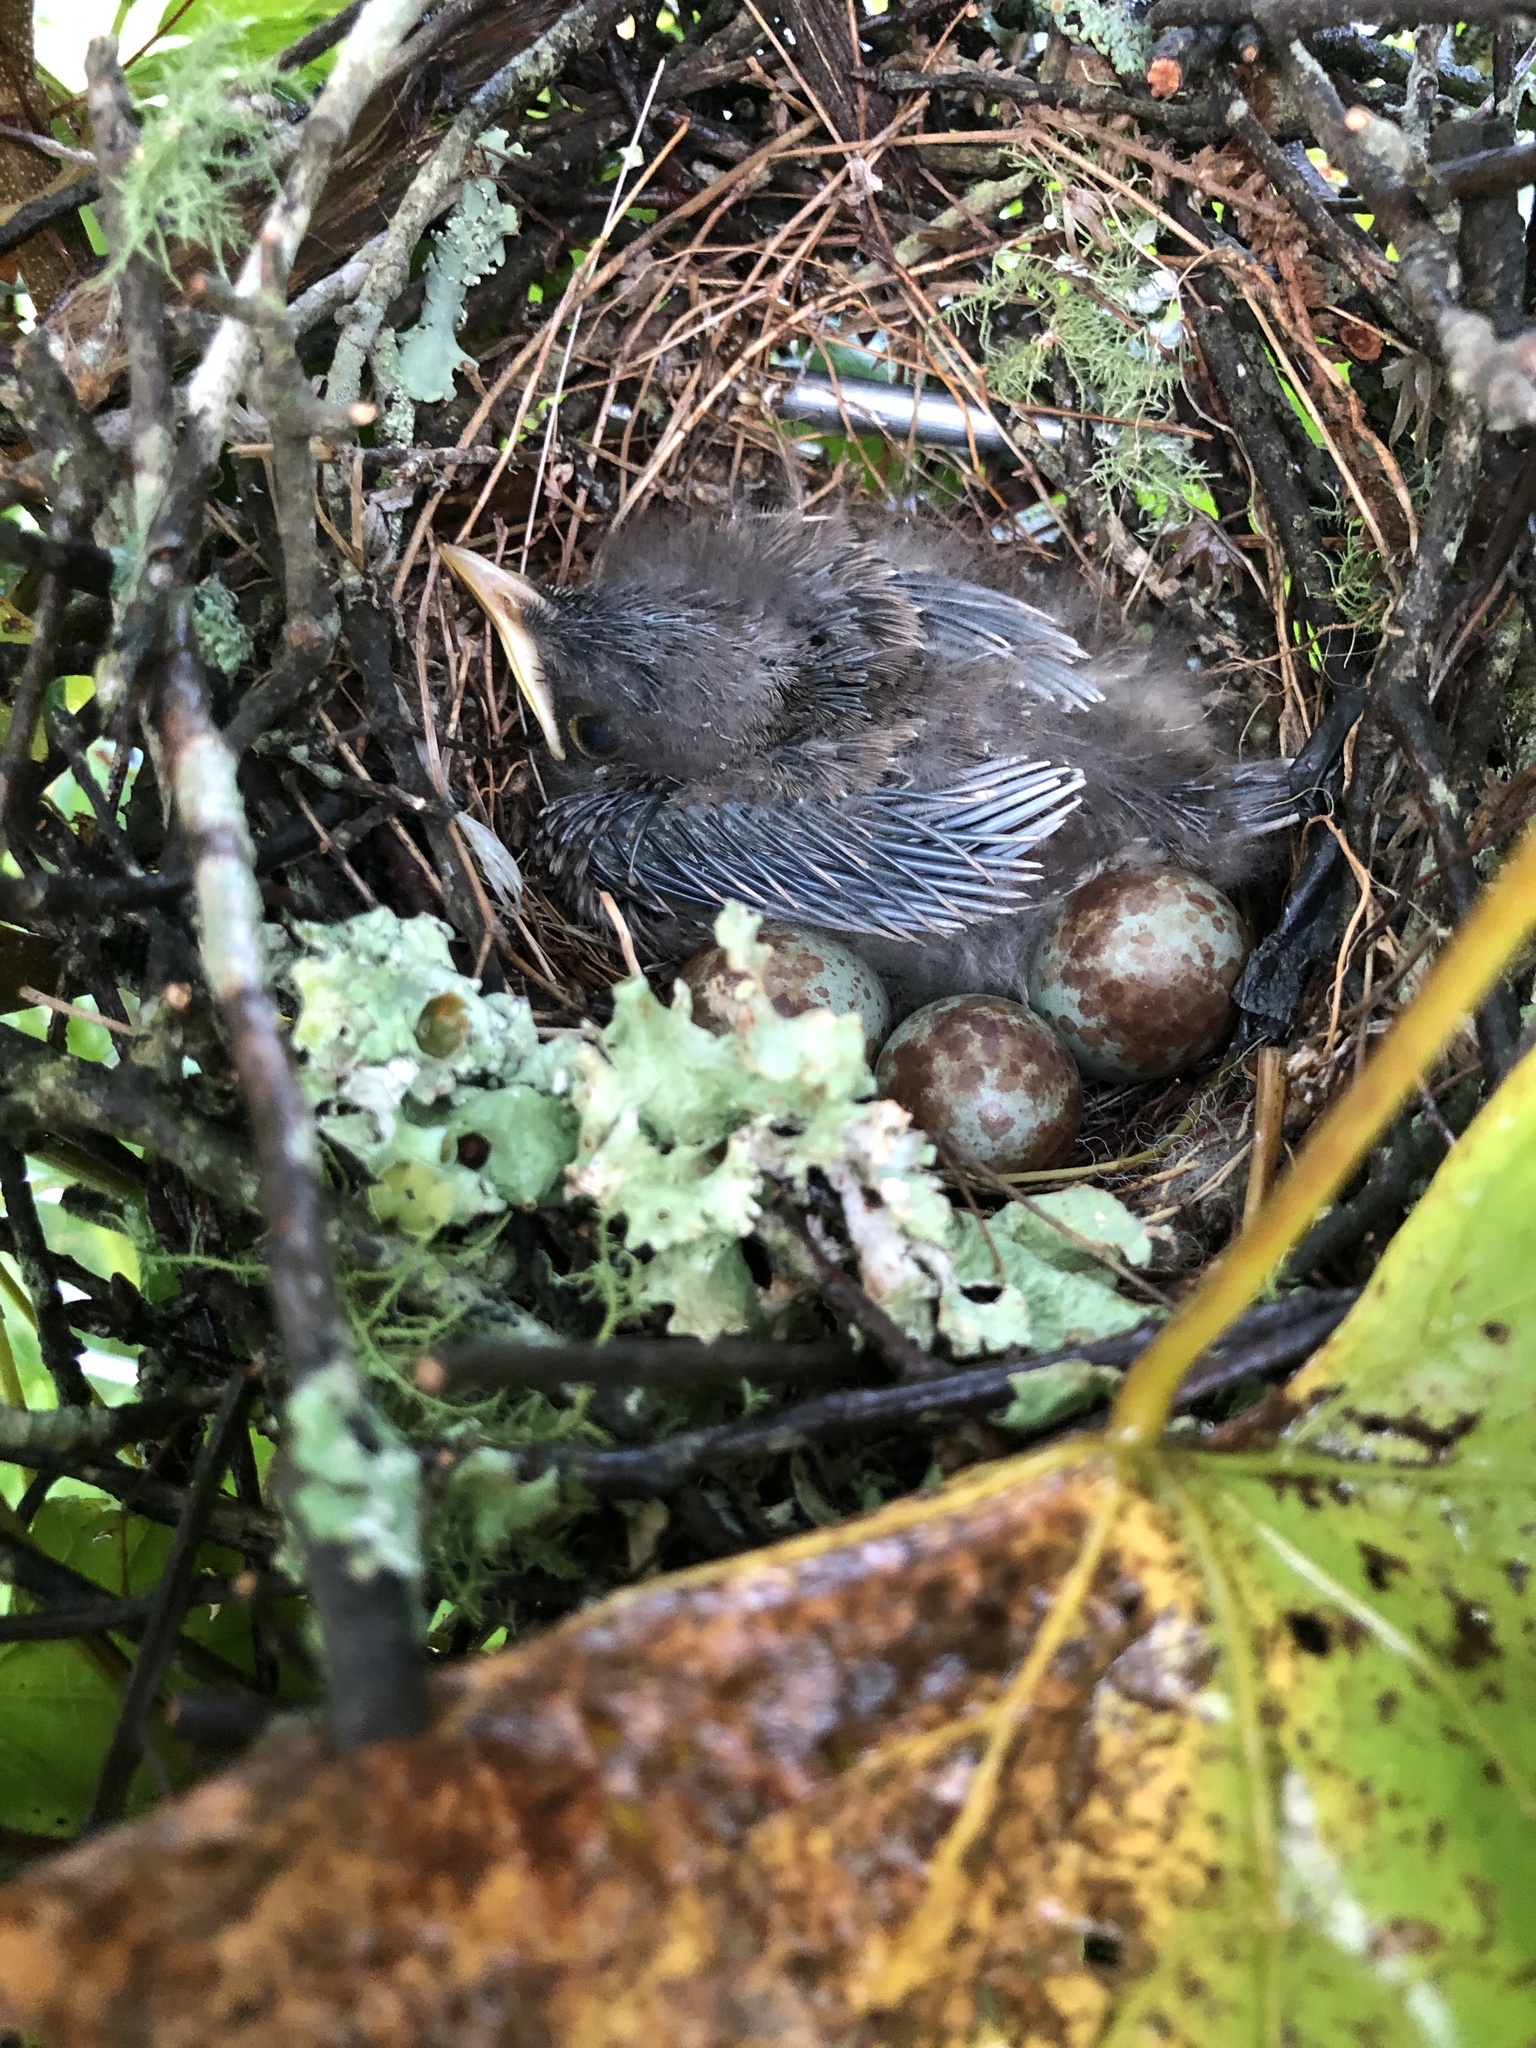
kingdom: Animalia
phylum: Chordata
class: Aves
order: Passeriformes
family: Mimidae
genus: Mimus
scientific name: Mimus polyglottos
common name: Northern mockingbird
